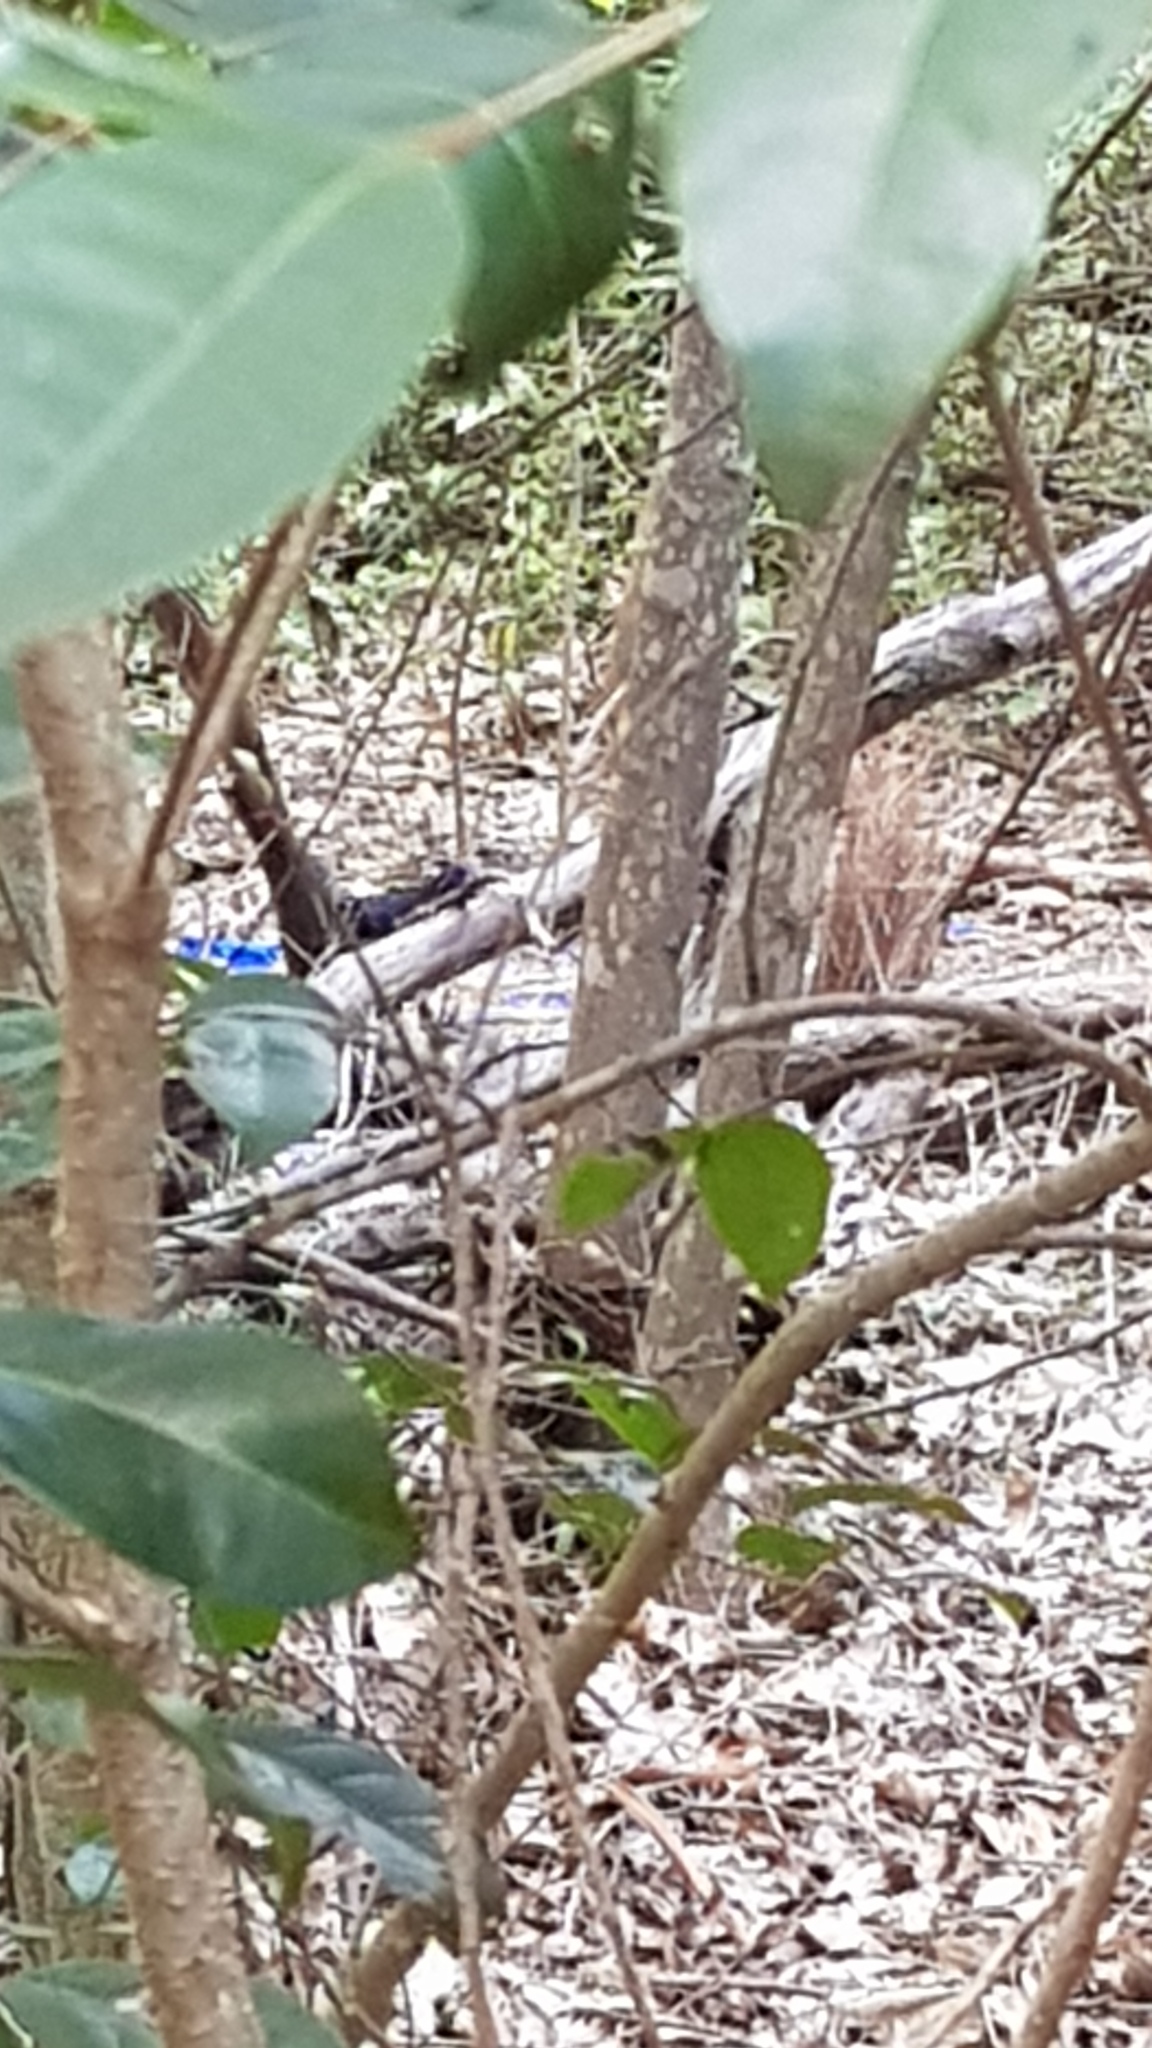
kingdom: Animalia
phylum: Chordata
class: Aves
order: Passeriformes
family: Ptilonorhynchidae
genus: Ptilonorhynchus
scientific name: Ptilonorhynchus violaceus
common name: Satin bowerbird
